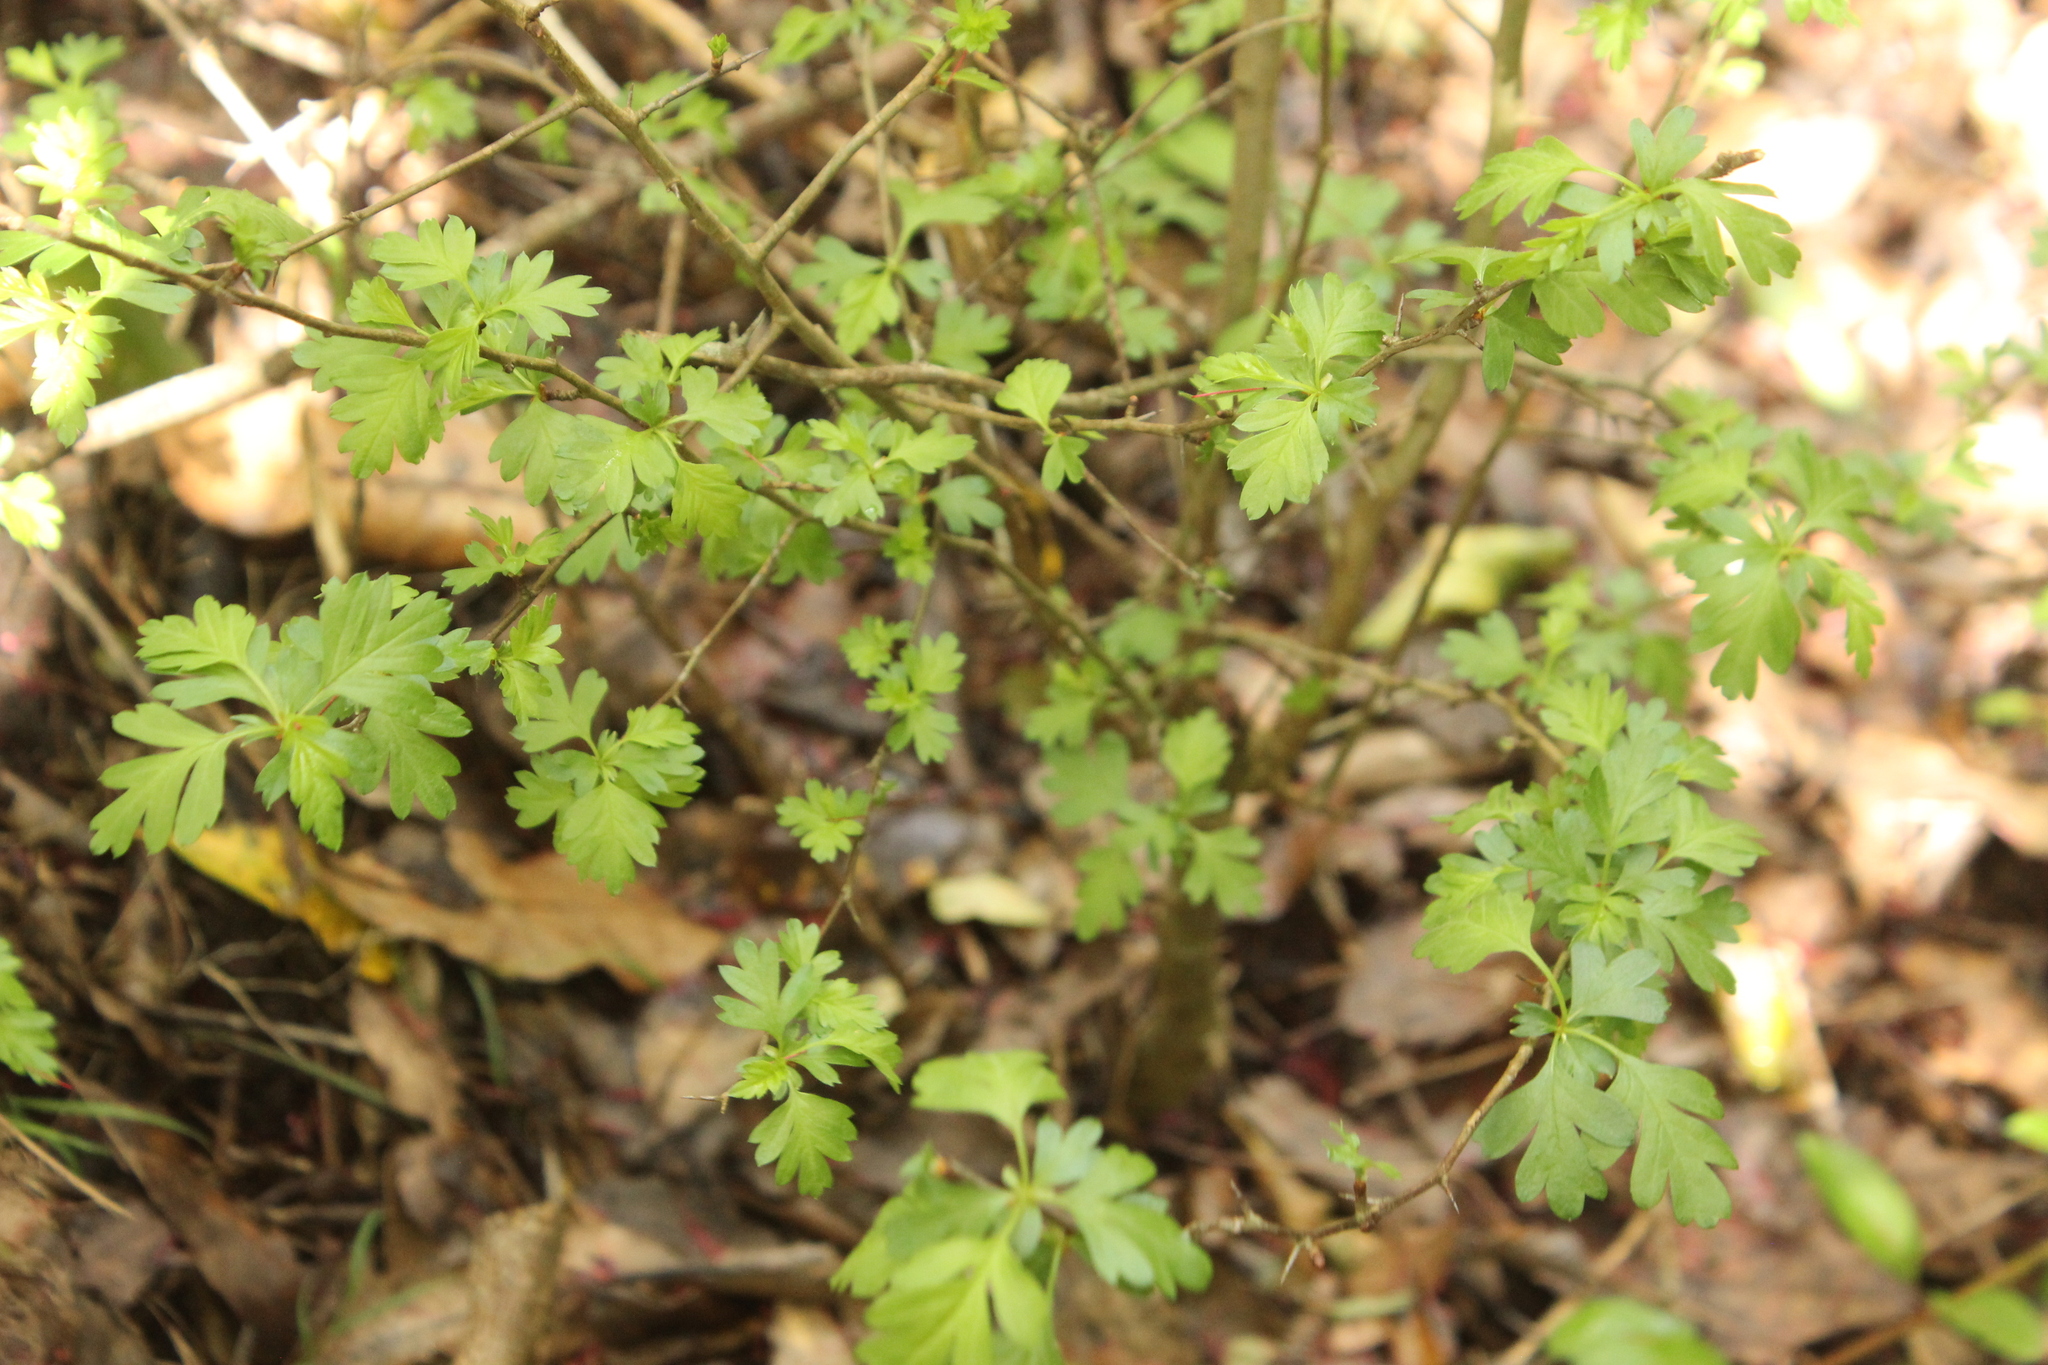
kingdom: Plantae
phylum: Tracheophyta
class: Magnoliopsida
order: Rosales
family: Rosaceae
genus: Crataegus
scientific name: Crataegus monogyna
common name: Hawthorn
